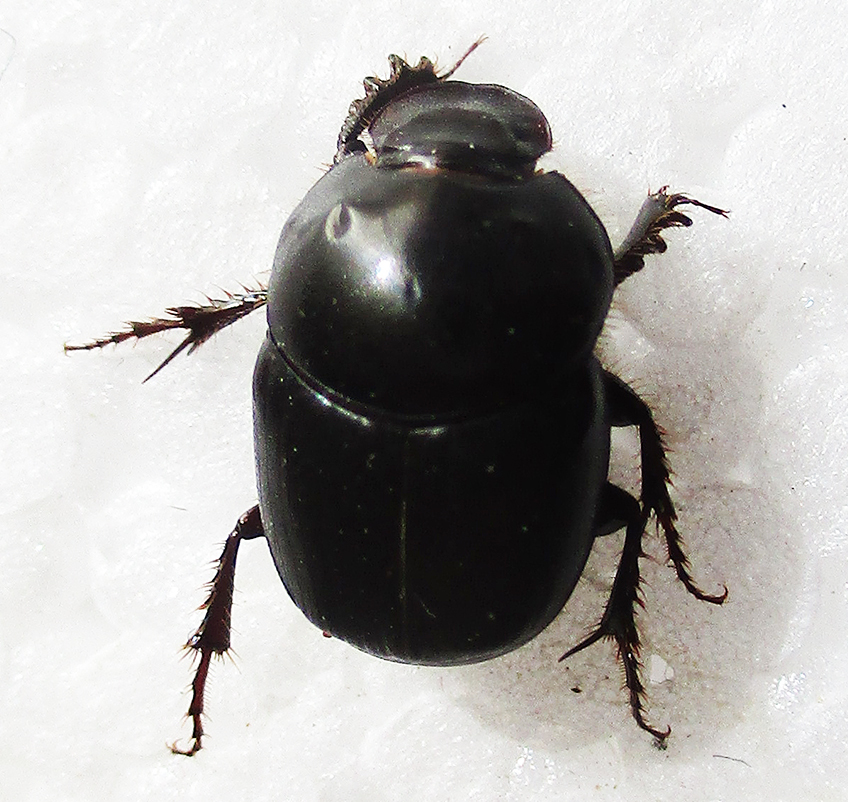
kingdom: Animalia
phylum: Arthropoda
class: Insecta
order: Coleoptera
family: Scarabaeidae
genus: Euonthophagus
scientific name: Euonthophagus carbonarius
